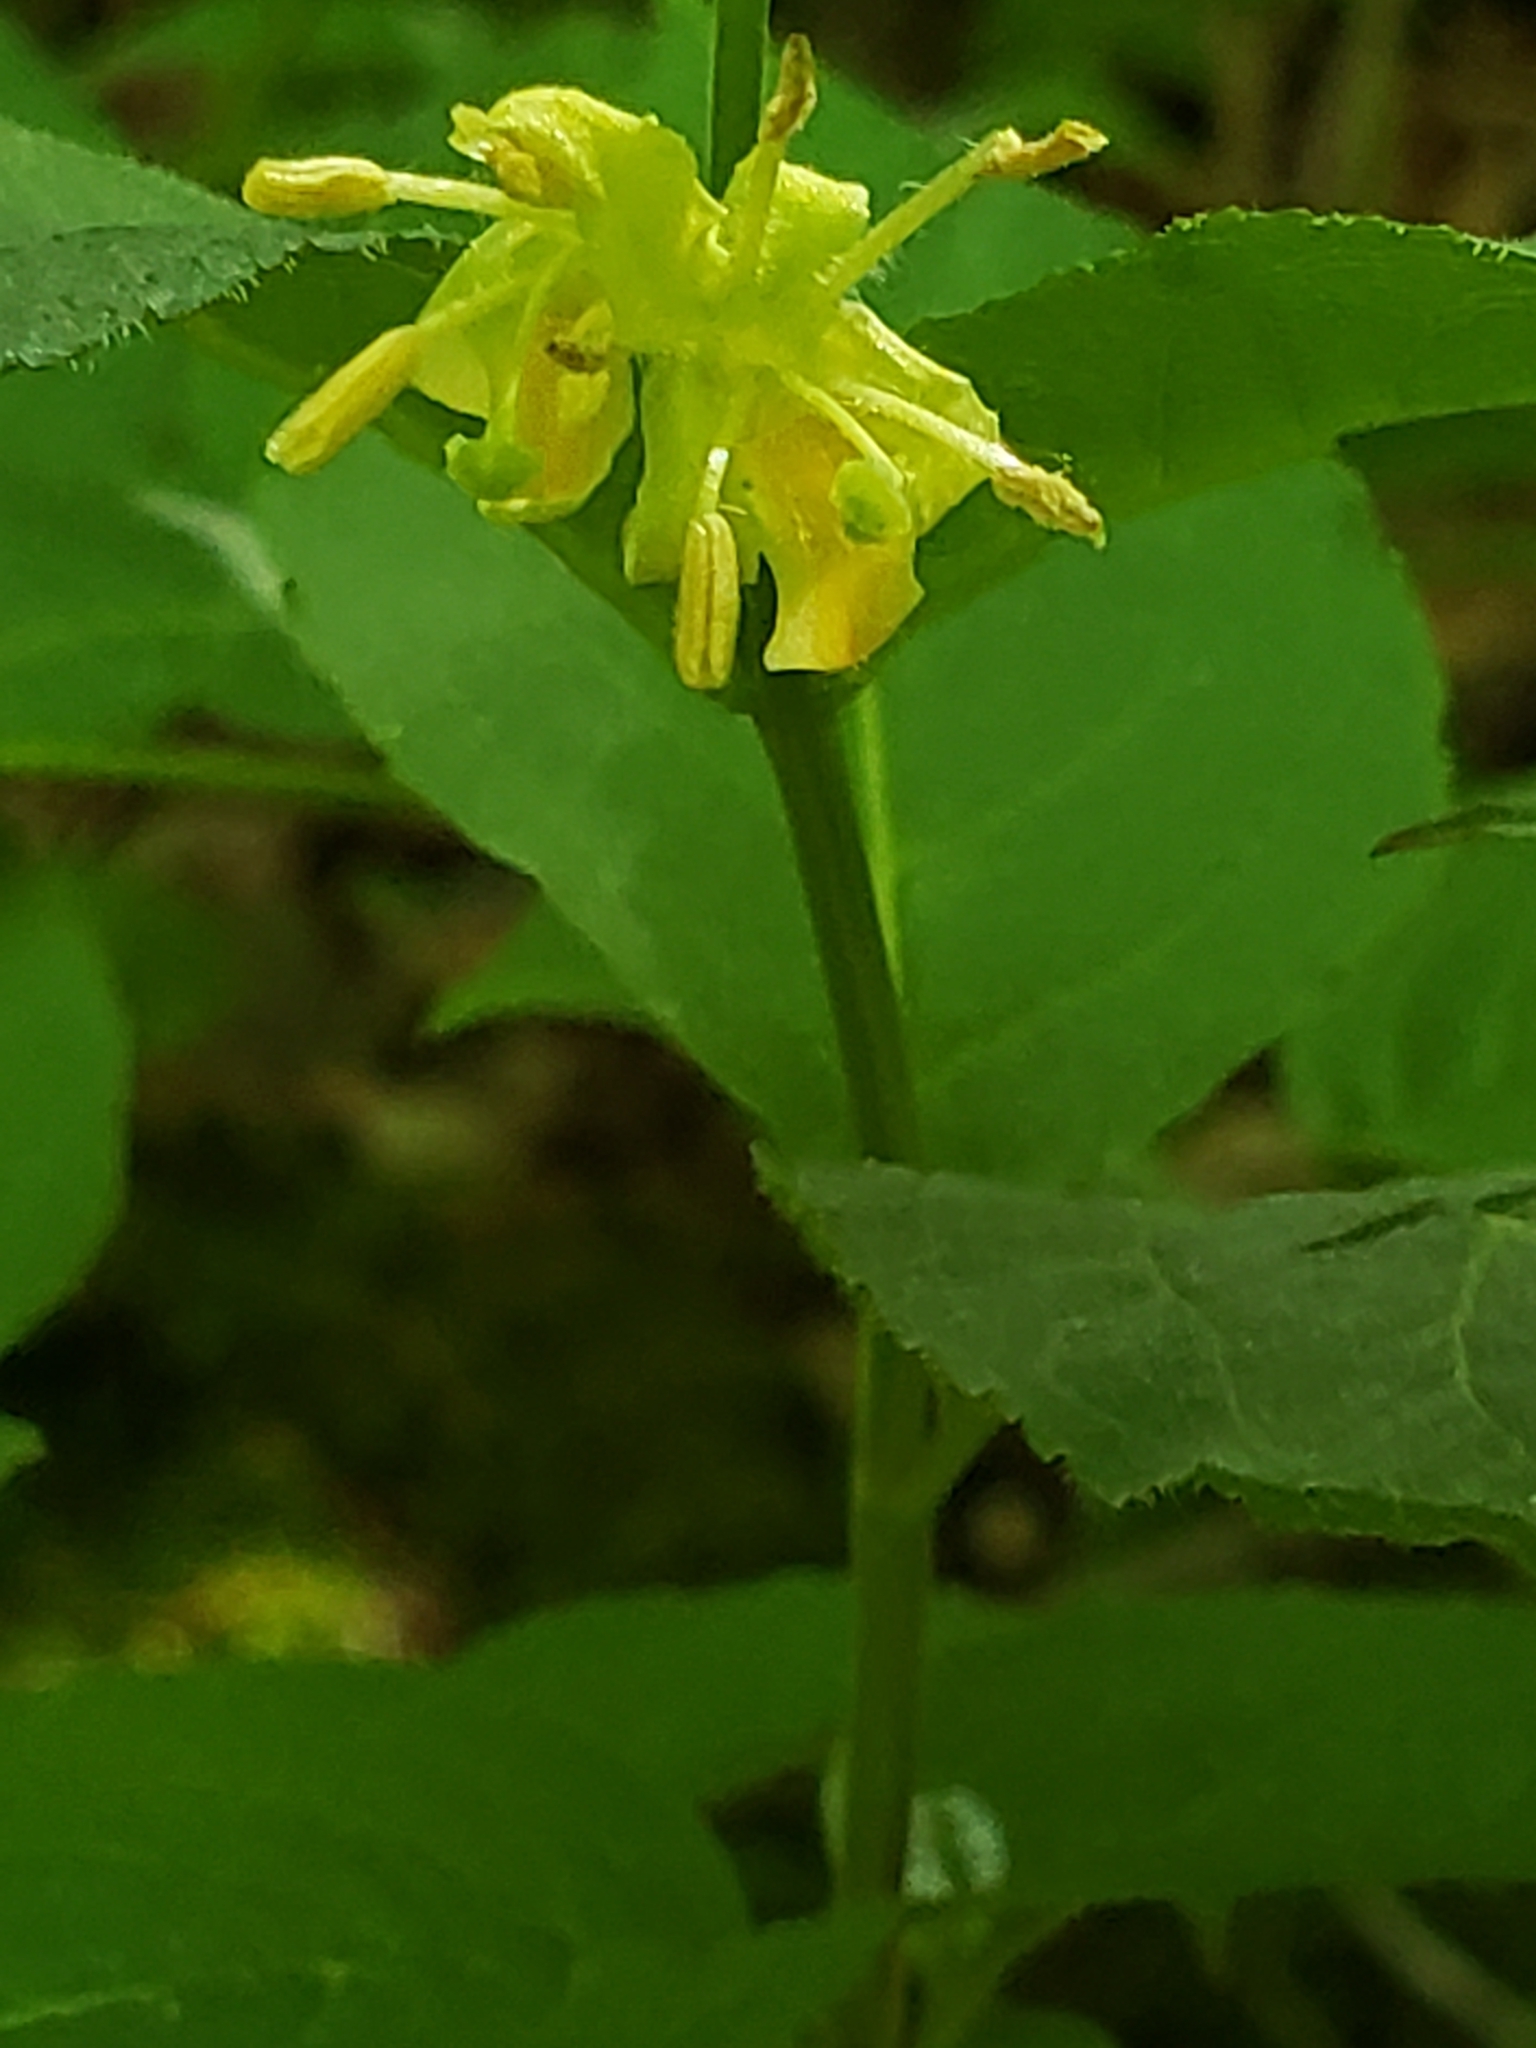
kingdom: Plantae
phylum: Tracheophyta
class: Magnoliopsida
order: Dipsacales
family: Caprifoliaceae
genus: Diervilla
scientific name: Diervilla lonicera
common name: Bush-honeysuckle
